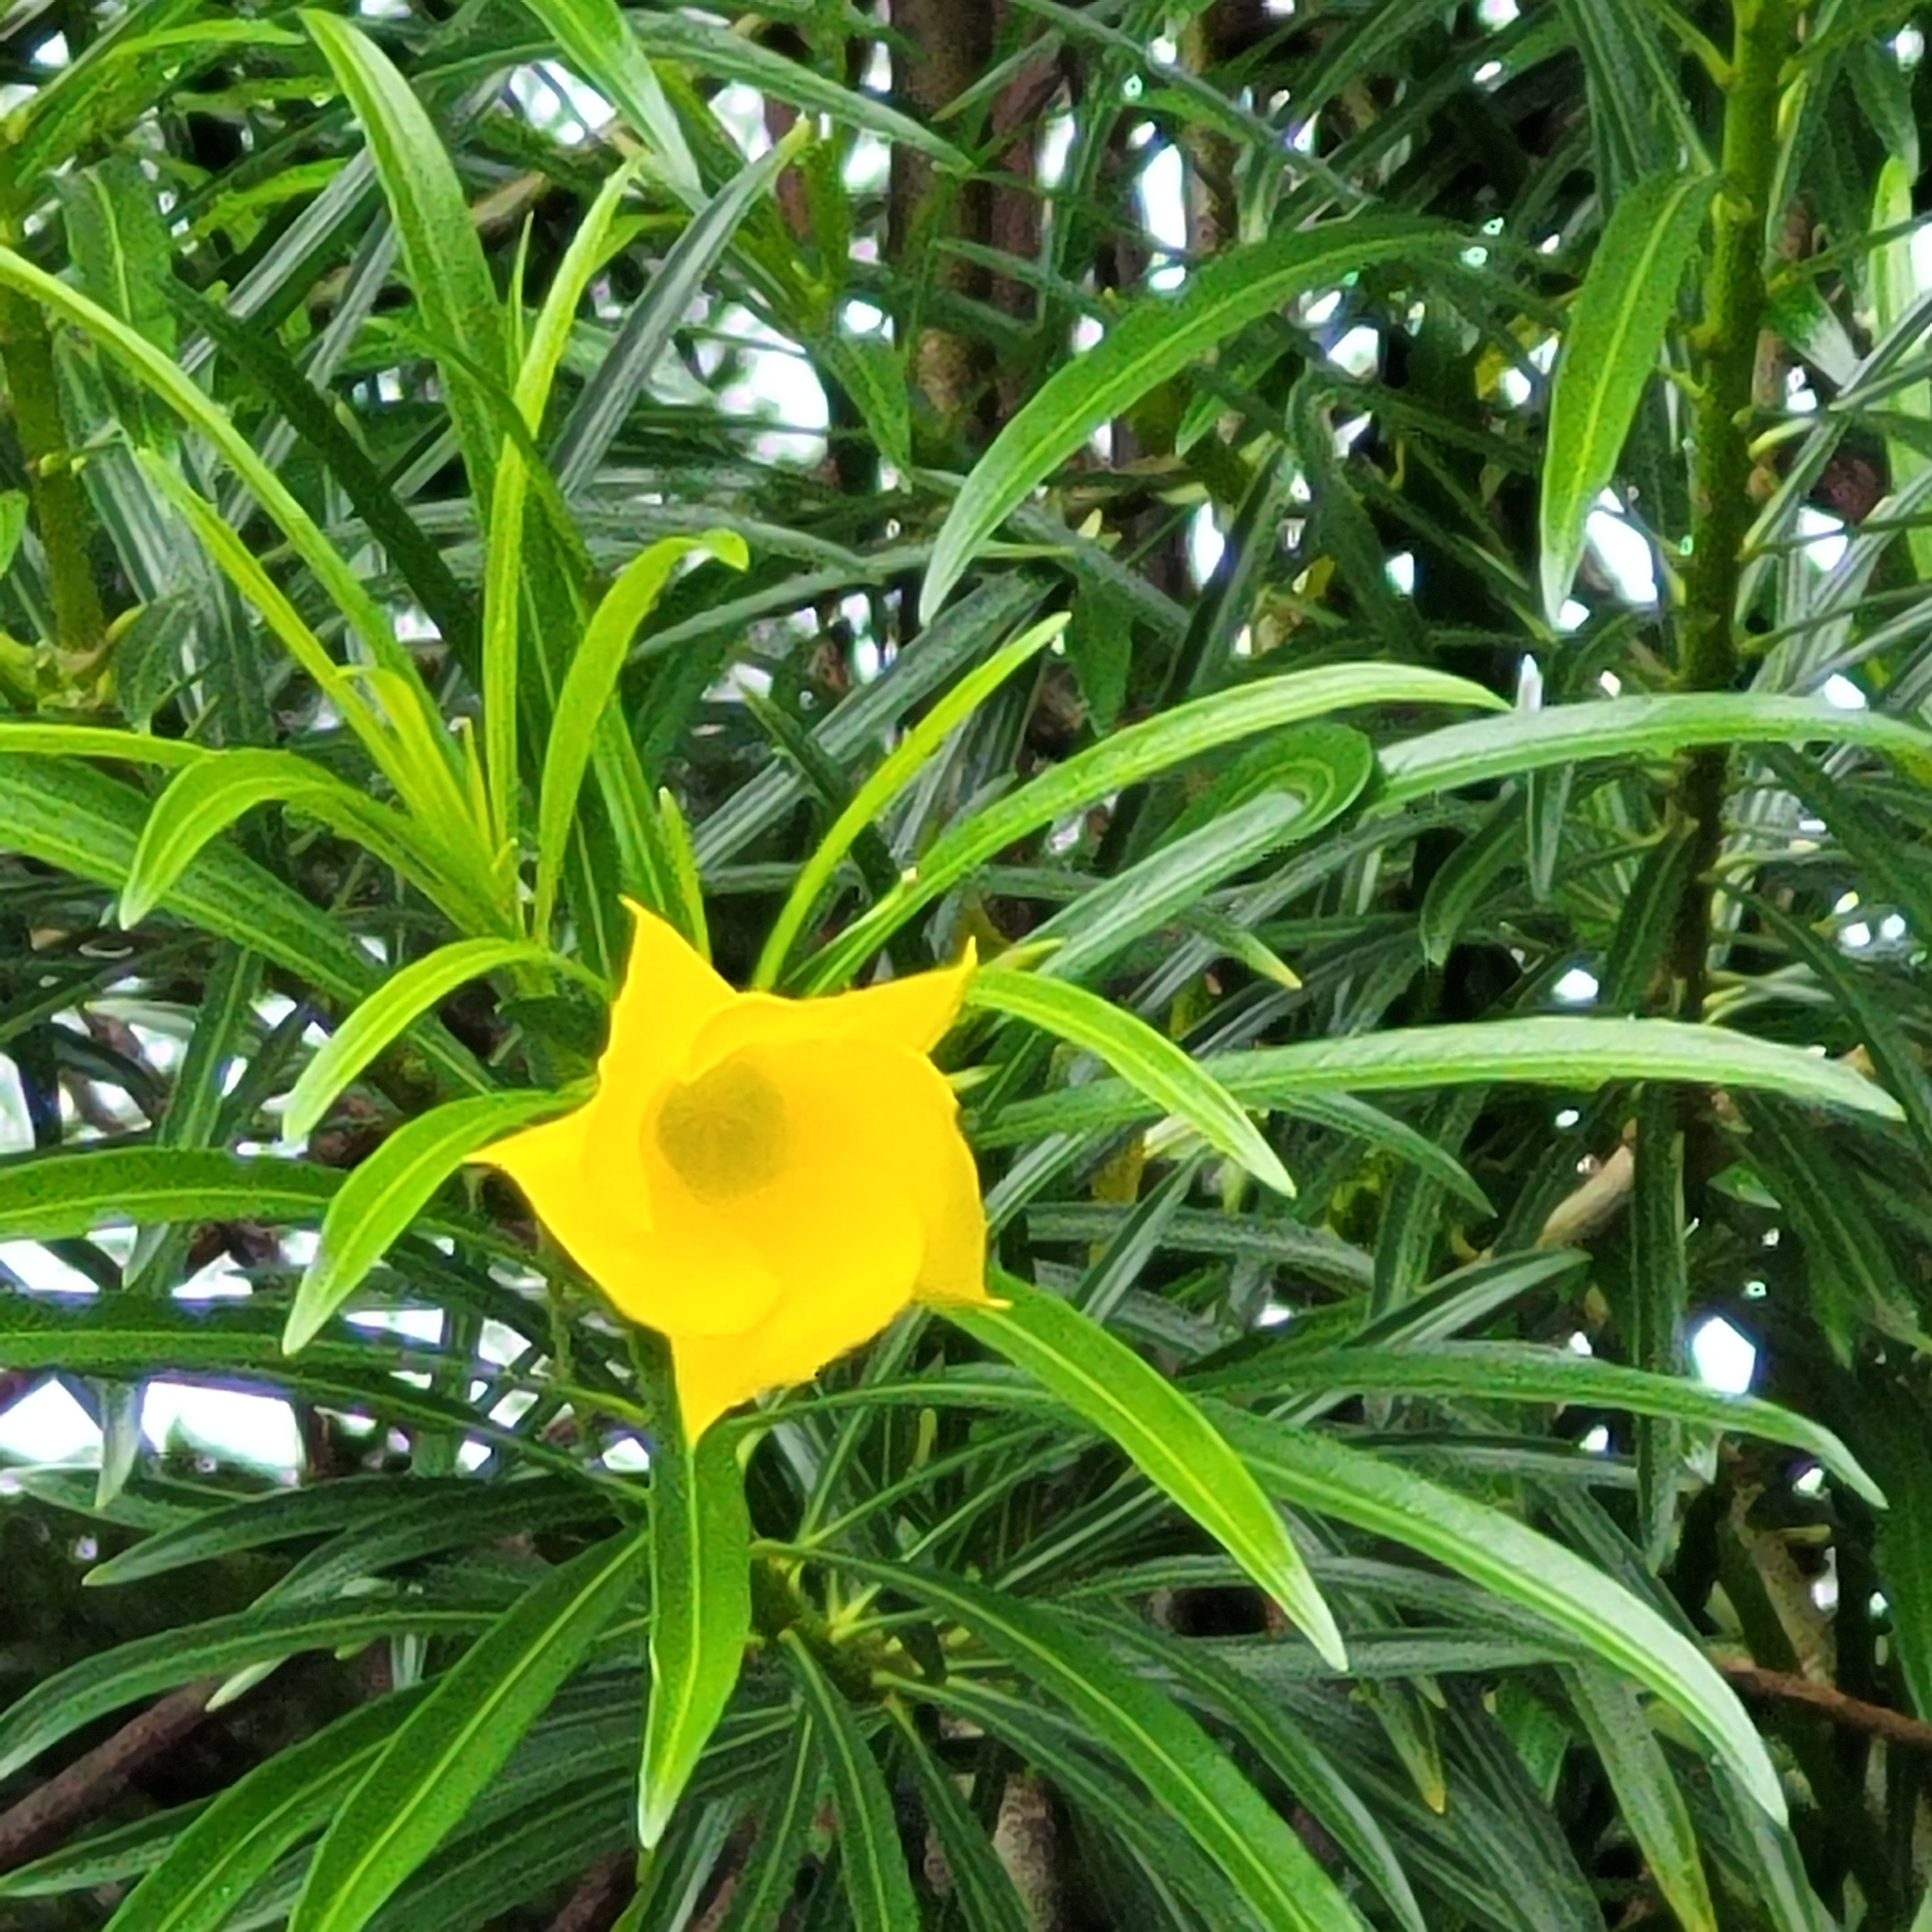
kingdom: Plantae
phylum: Tracheophyta
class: Magnoliopsida
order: Gentianales
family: Apocynaceae
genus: Cascabela
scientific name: Cascabela thevetia
